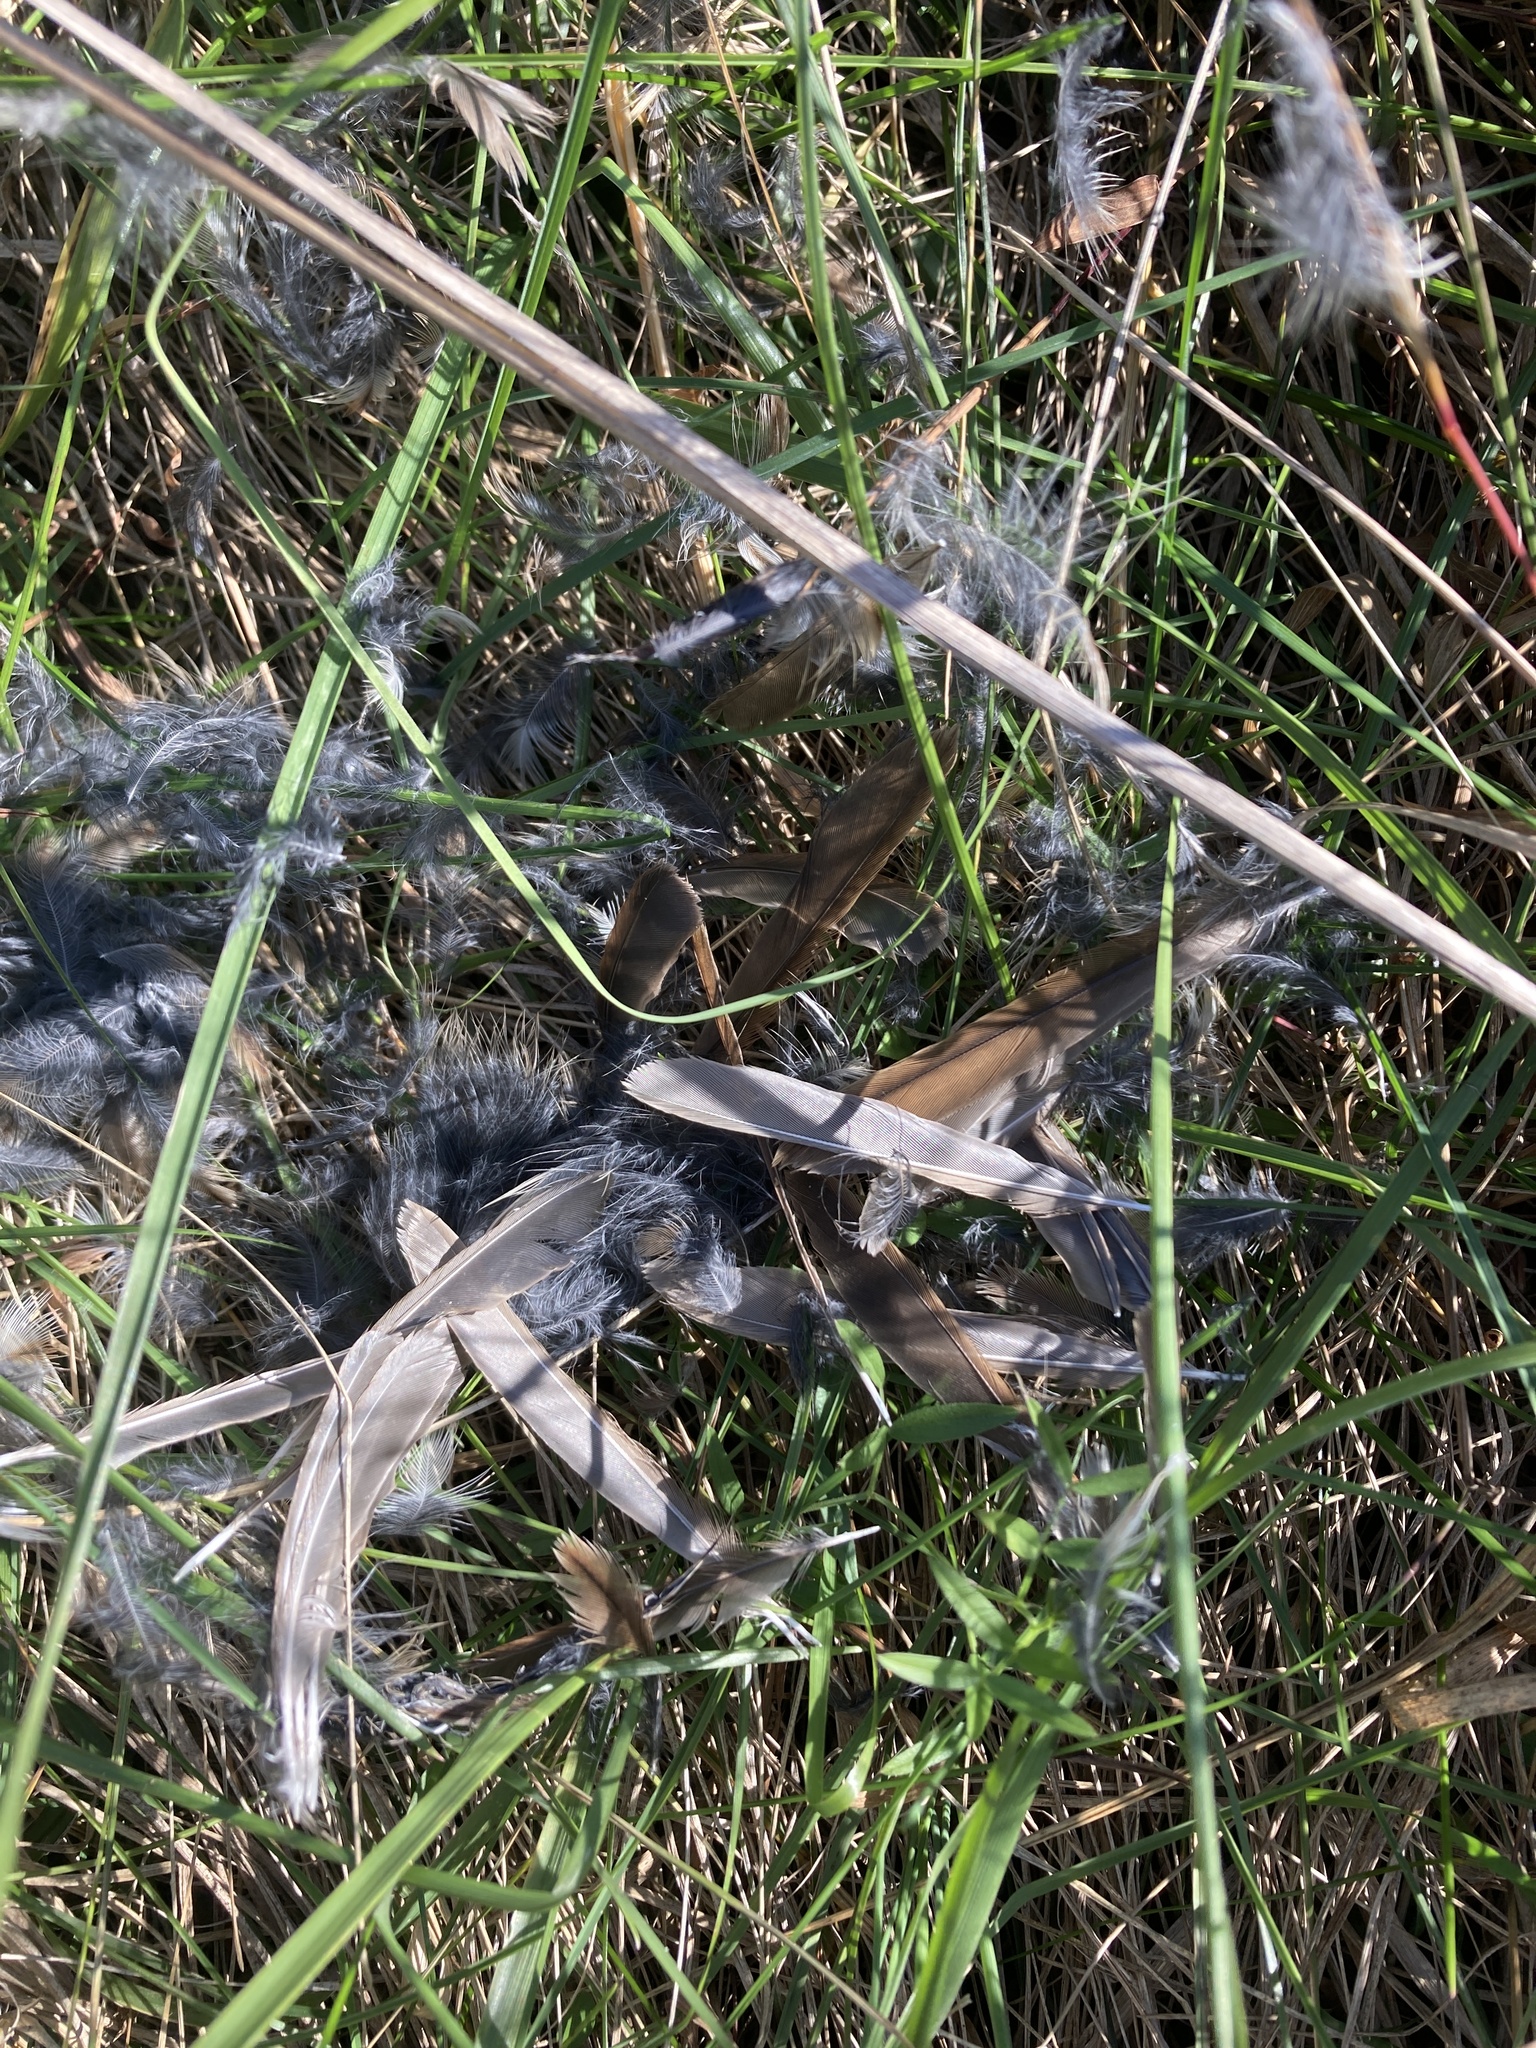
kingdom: Animalia
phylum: Chordata
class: Aves
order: Passeriformes
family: Passerellidae
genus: Melospiza
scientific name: Melospiza melodia
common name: Song sparrow
